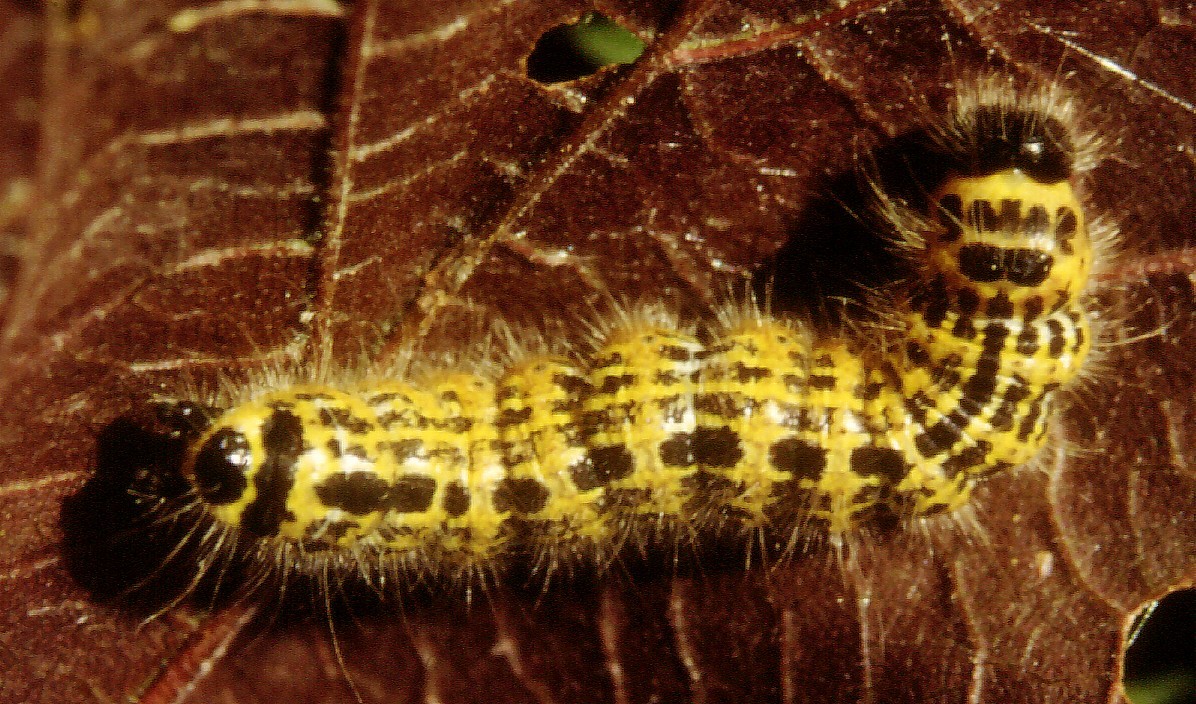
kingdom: Animalia
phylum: Arthropoda
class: Insecta
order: Lepidoptera
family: Notodontidae
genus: Phalera
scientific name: Phalera bucephala
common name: Buff-tip
